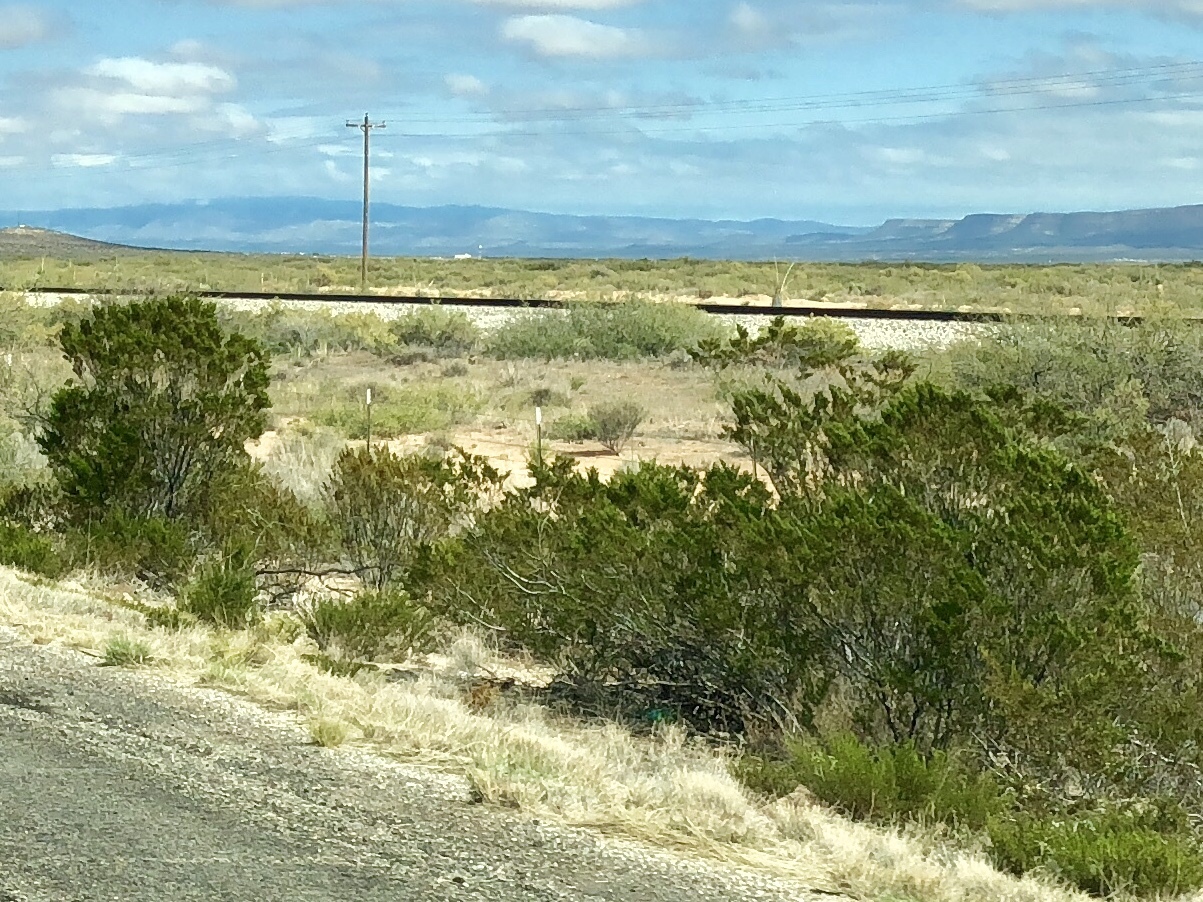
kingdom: Plantae
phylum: Tracheophyta
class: Magnoliopsida
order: Zygophyllales
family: Zygophyllaceae
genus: Larrea
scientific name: Larrea tridentata
